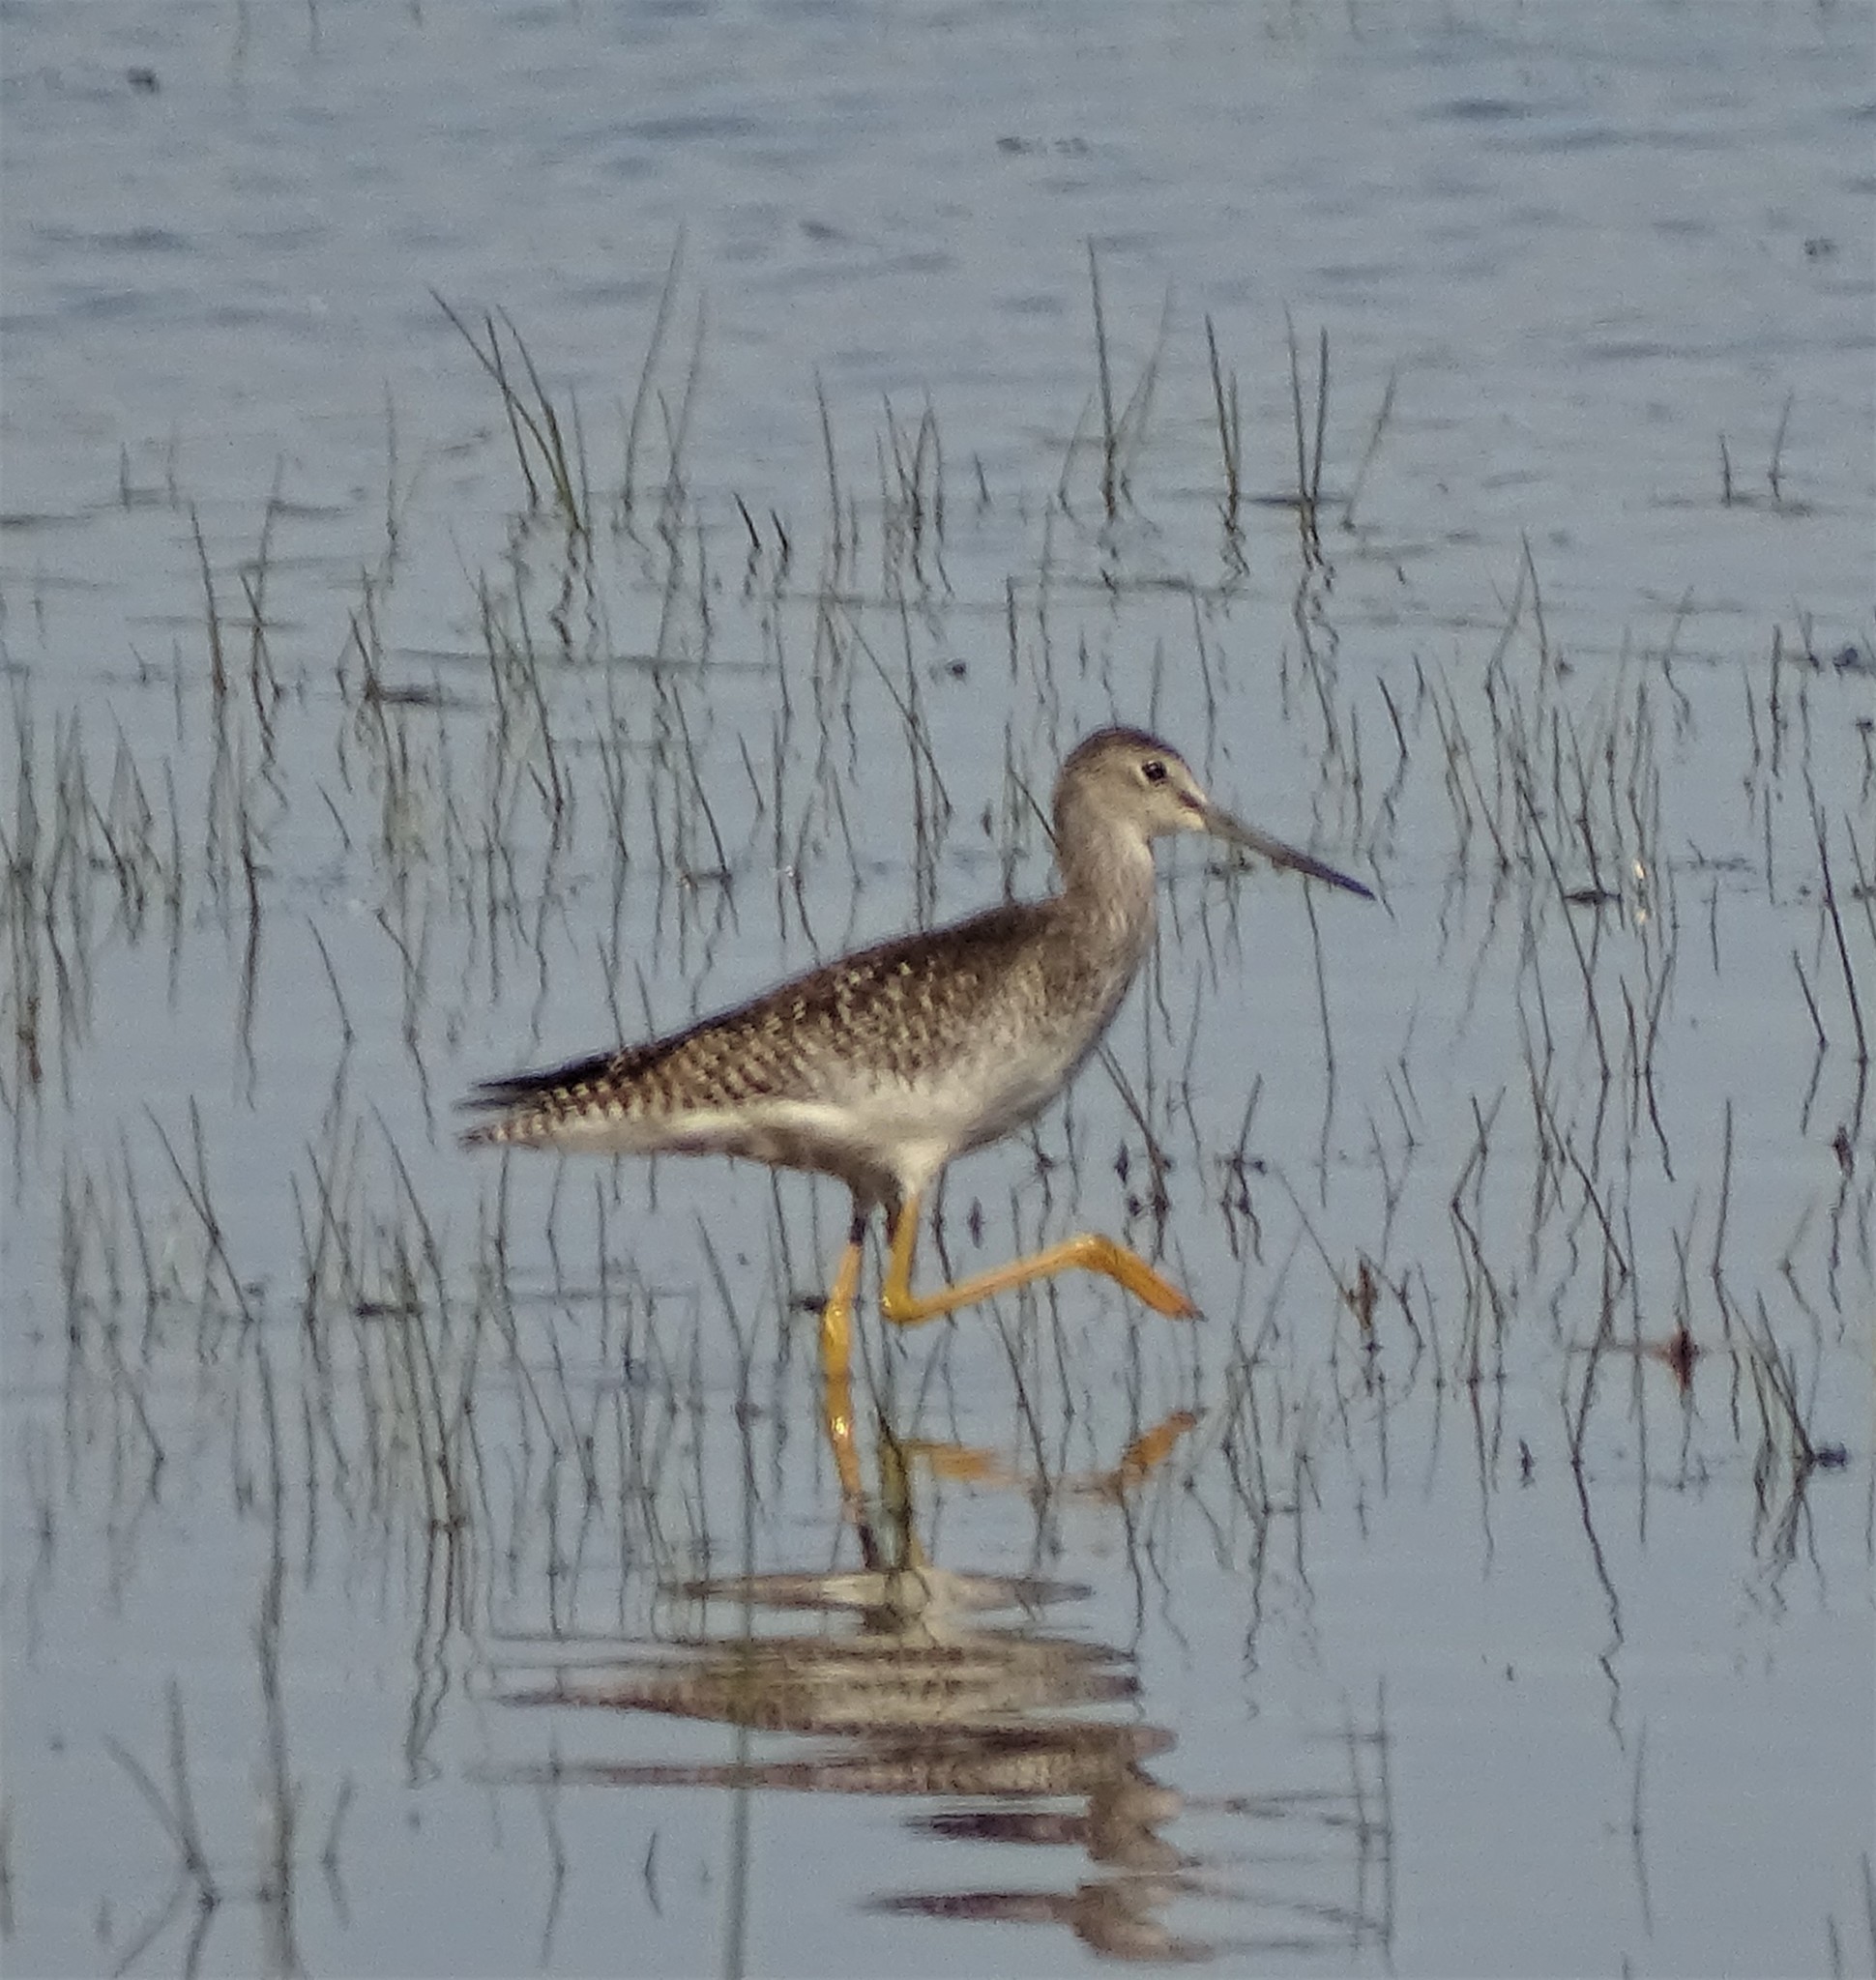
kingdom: Animalia
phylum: Chordata
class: Aves
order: Charadriiformes
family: Scolopacidae
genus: Tringa
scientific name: Tringa melanoleuca
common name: Greater yellowlegs
